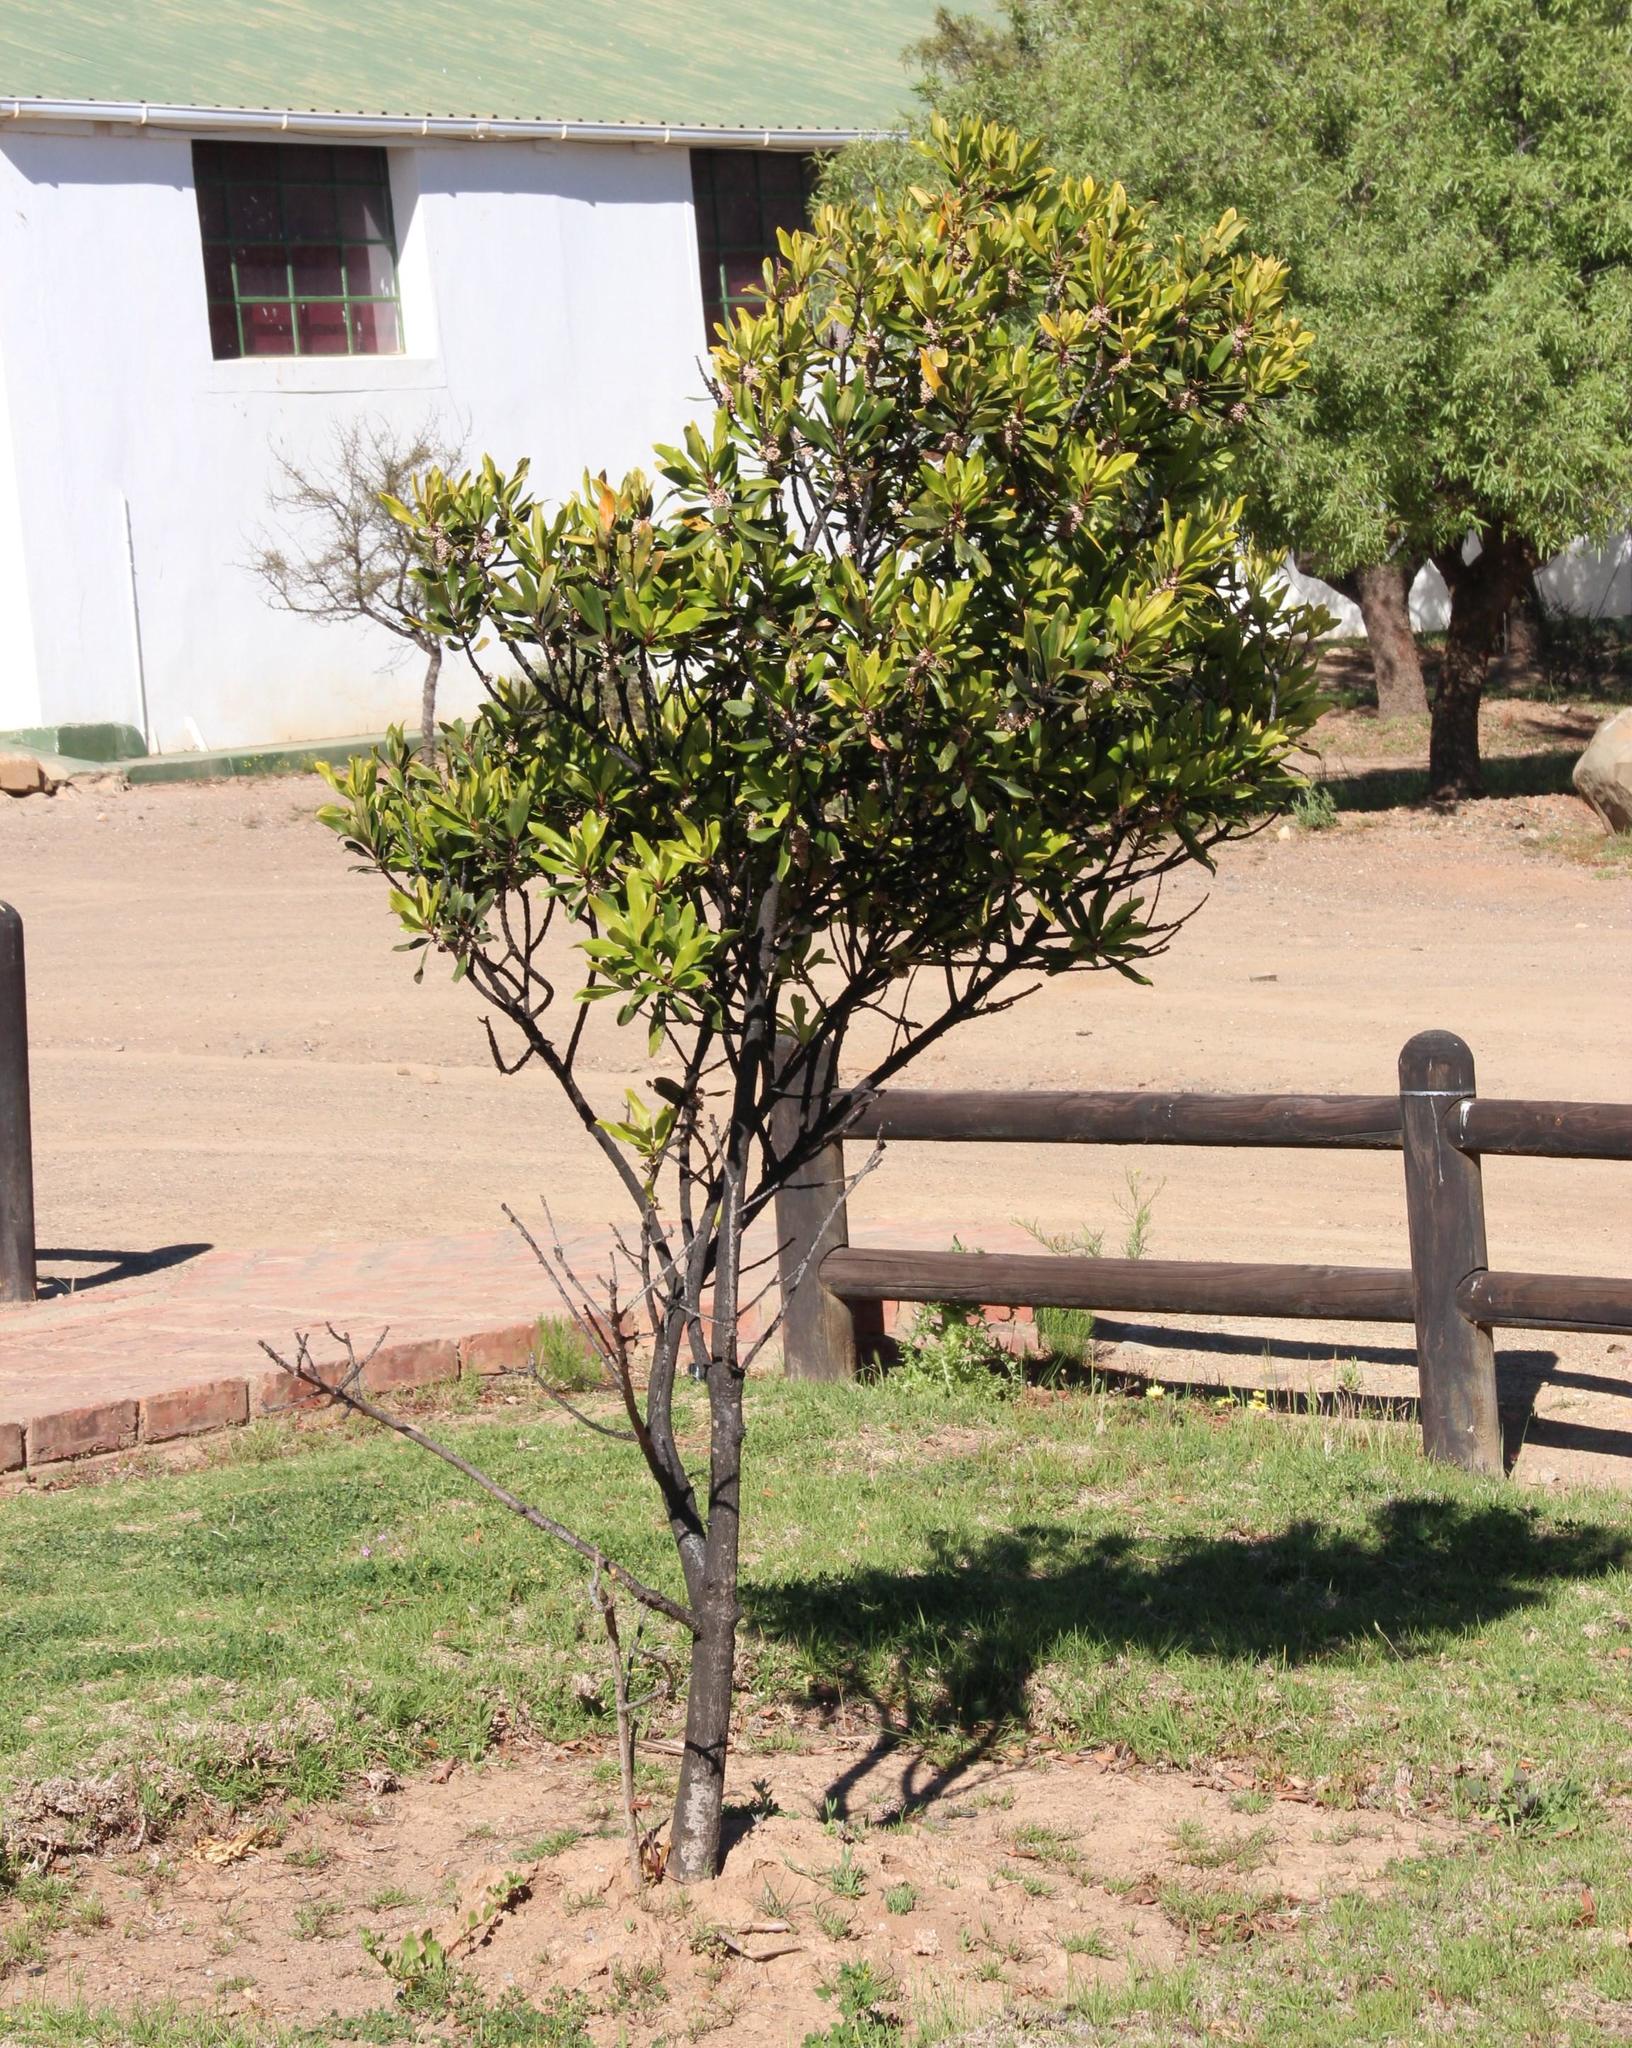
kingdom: Plantae
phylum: Tracheophyta
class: Magnoliopsida
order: Ericales
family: Primulaceae
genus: Myrsine
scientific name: Myrsine melanophloeos
